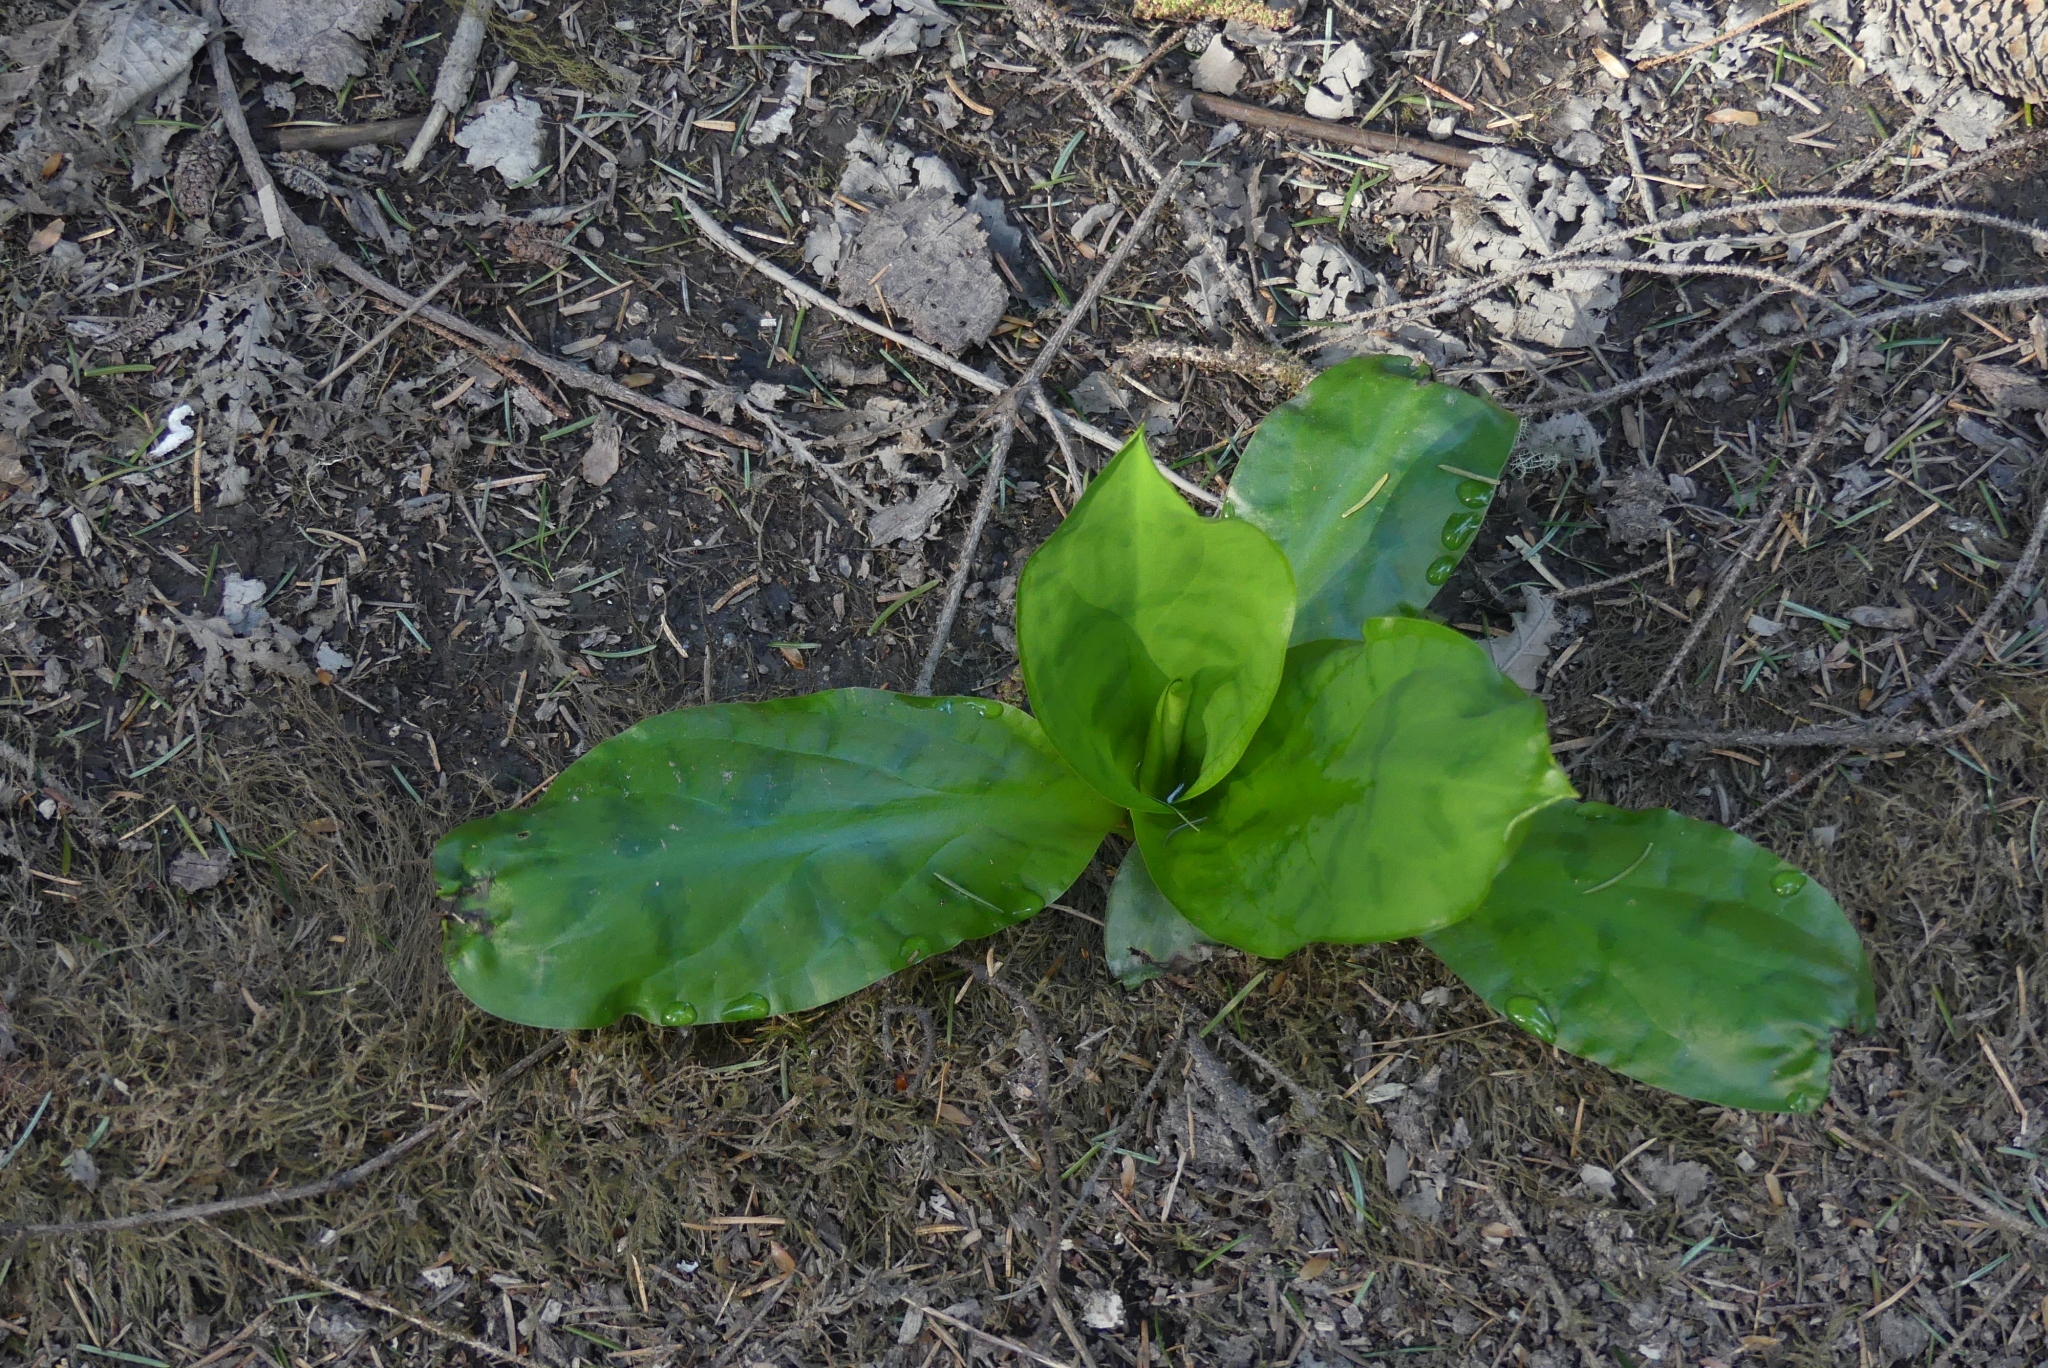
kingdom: Plantae
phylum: Tracheophyta
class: Liliopsida
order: Alismatales
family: Araceae
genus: Lysichiton
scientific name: Lysichiton americanus
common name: American skunk cabbage
